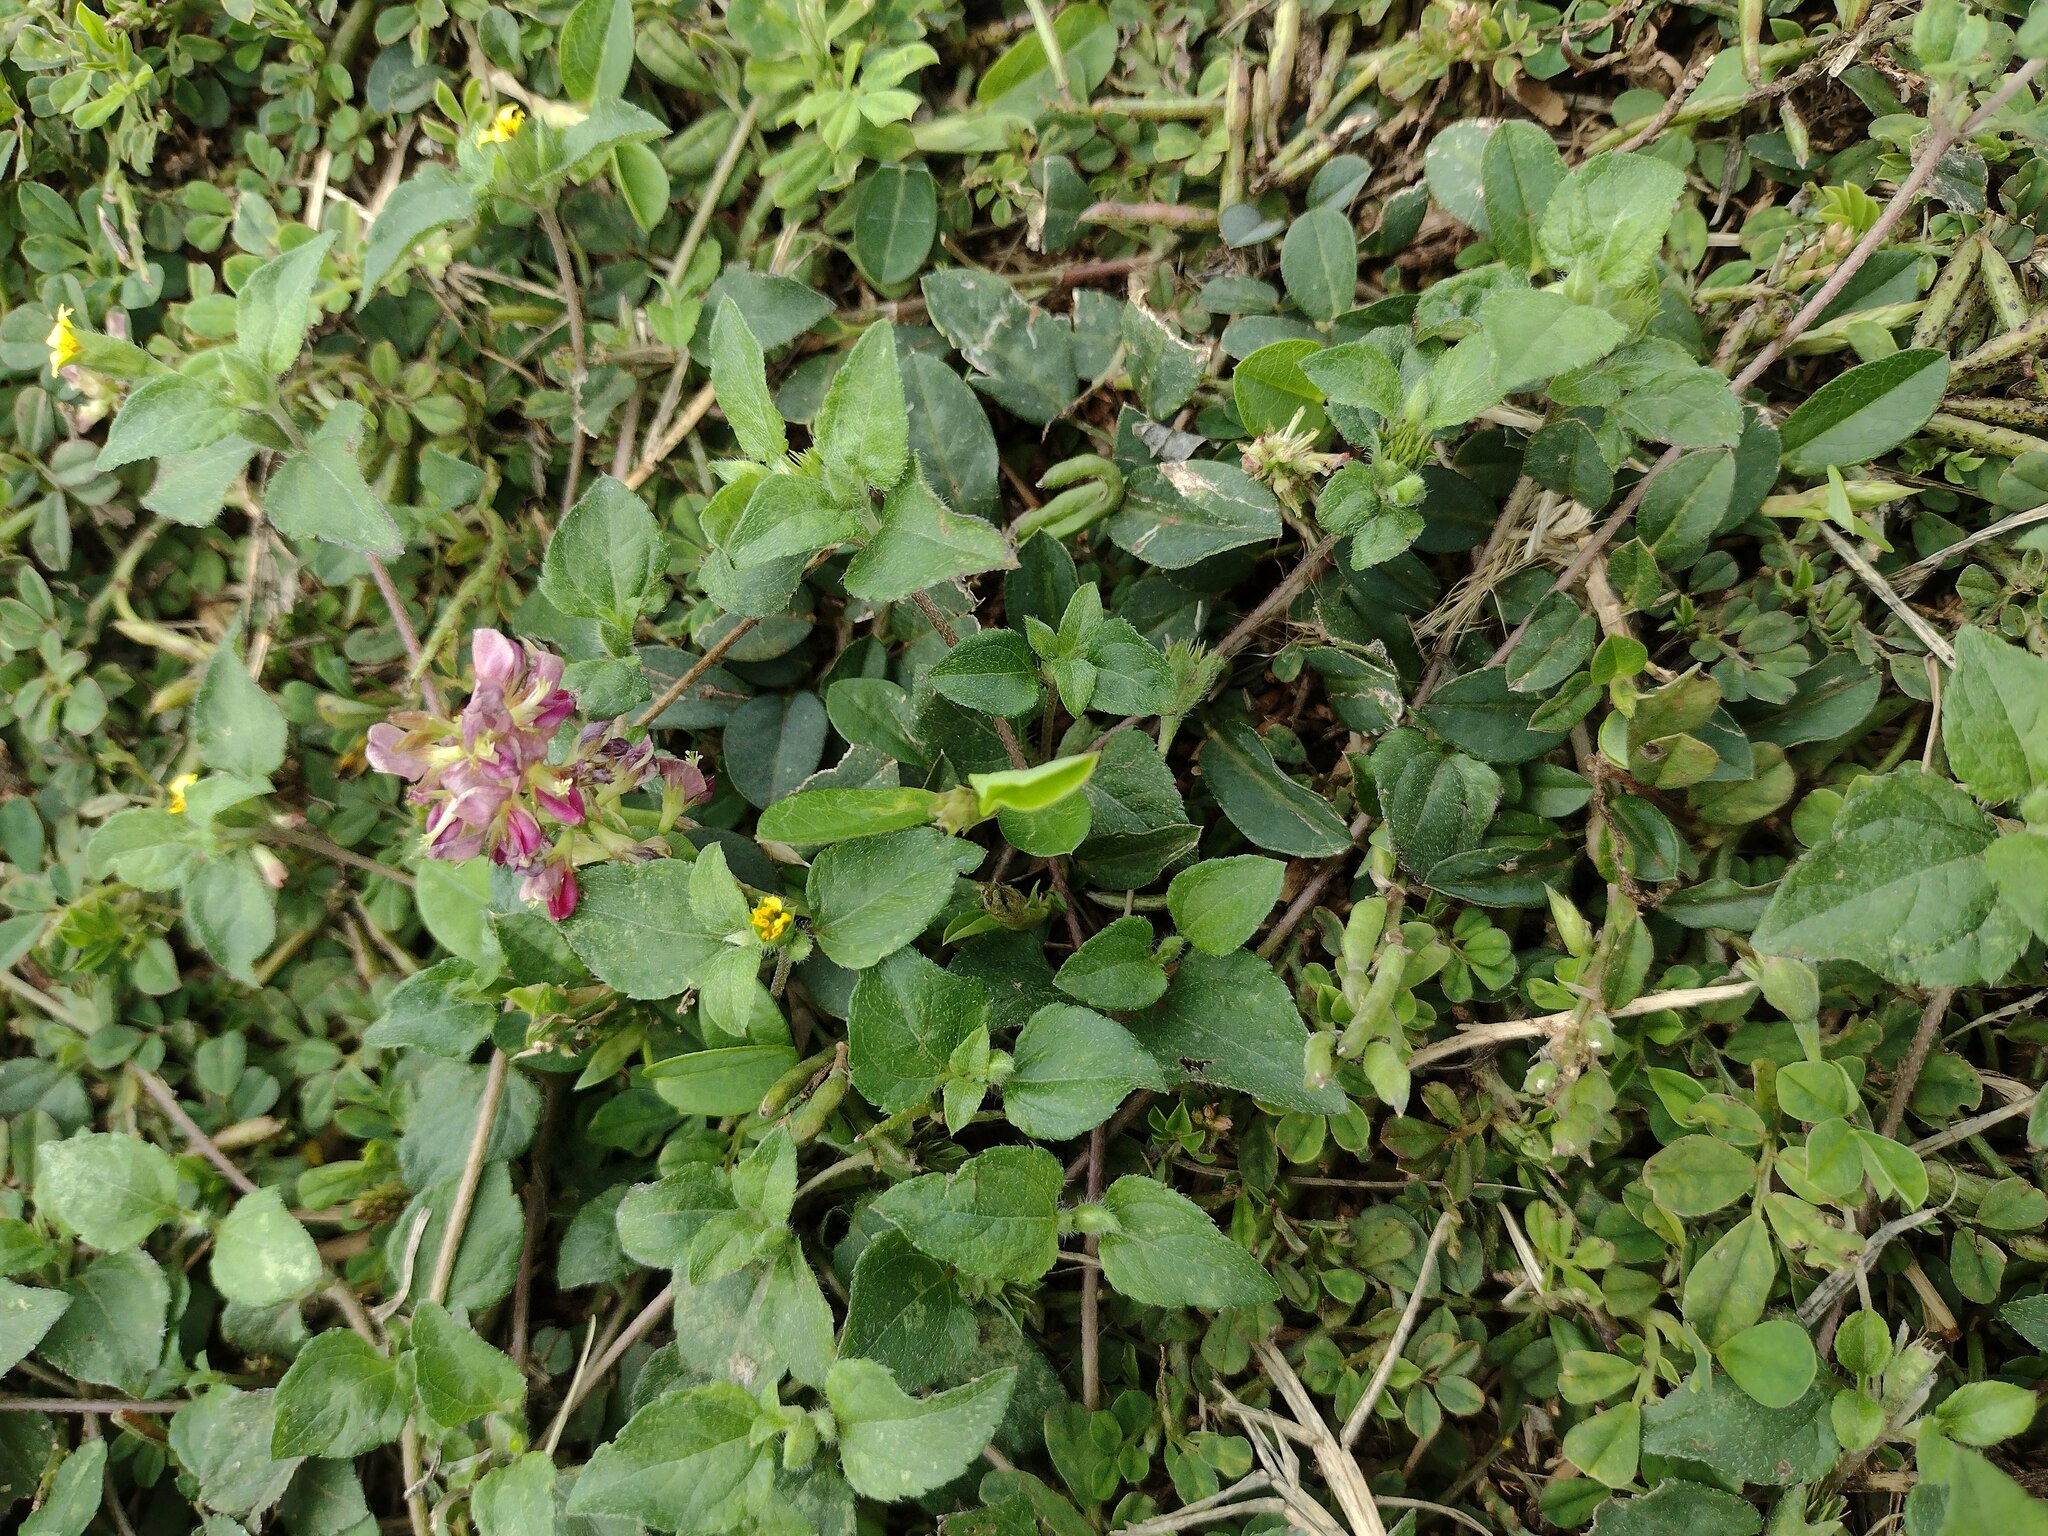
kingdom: Plantae
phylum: Tracheophyta
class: Magnoliopsida
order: Fabales
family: Fabaceae
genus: Indigofera
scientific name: Indigofera spicata
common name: Creeping indigo
